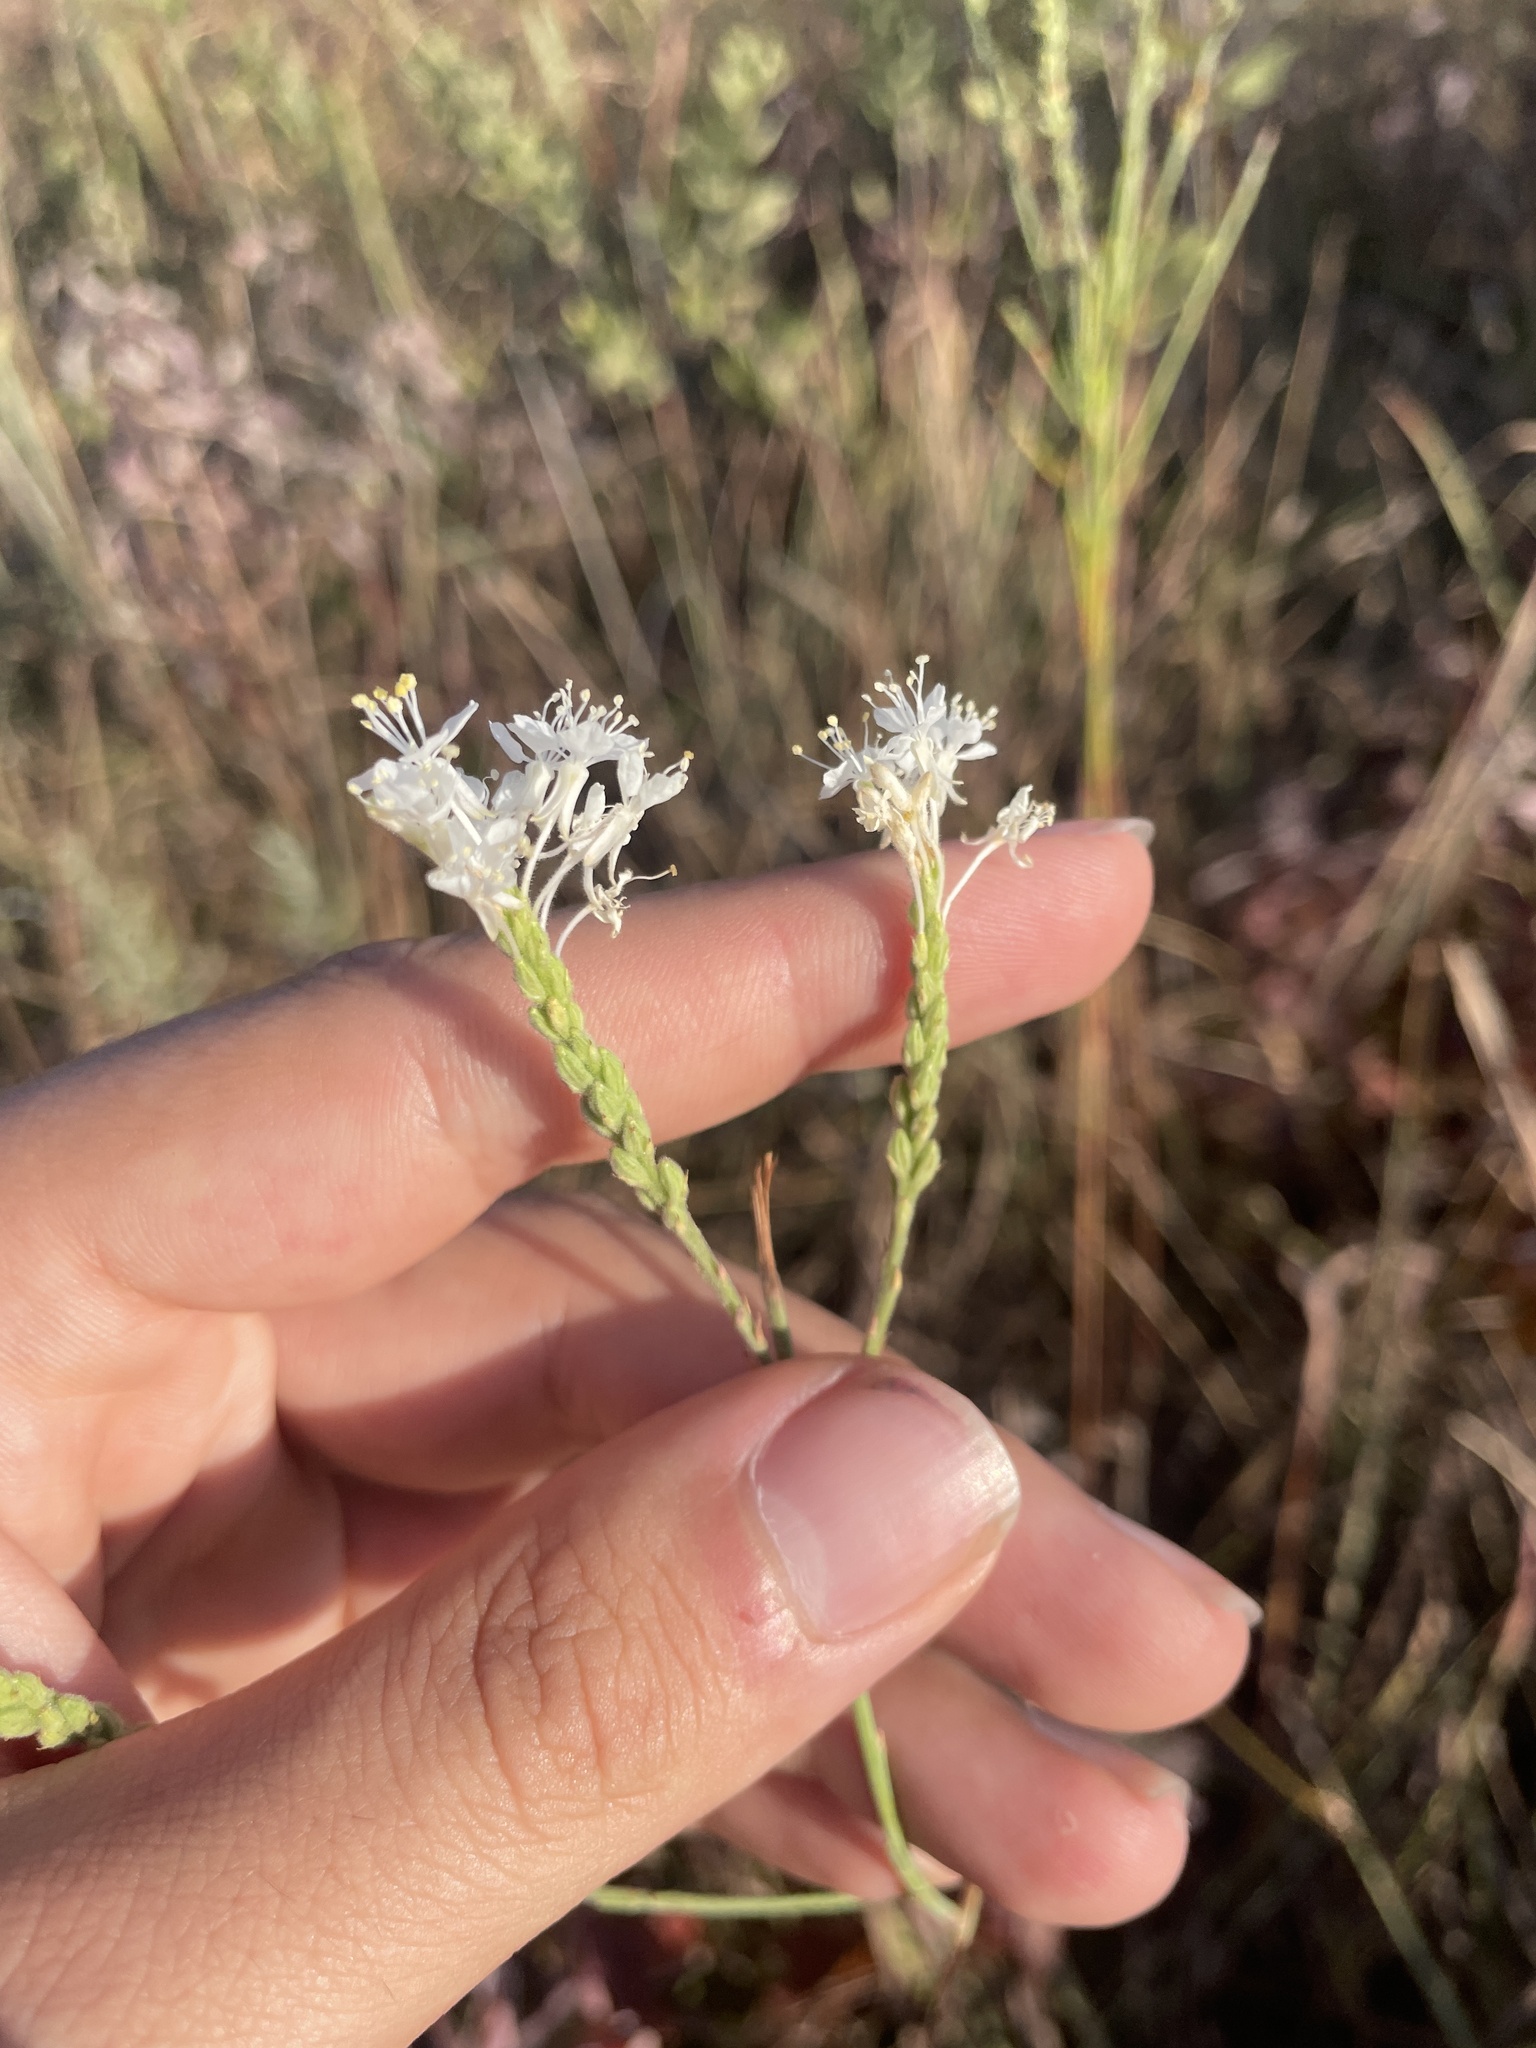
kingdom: Plantae
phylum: Tracheophyta
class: Magnoliopsida
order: Myrtales
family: Onagraceae
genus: Oenothera
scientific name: Oenothera glaucifolia
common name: False gaura
